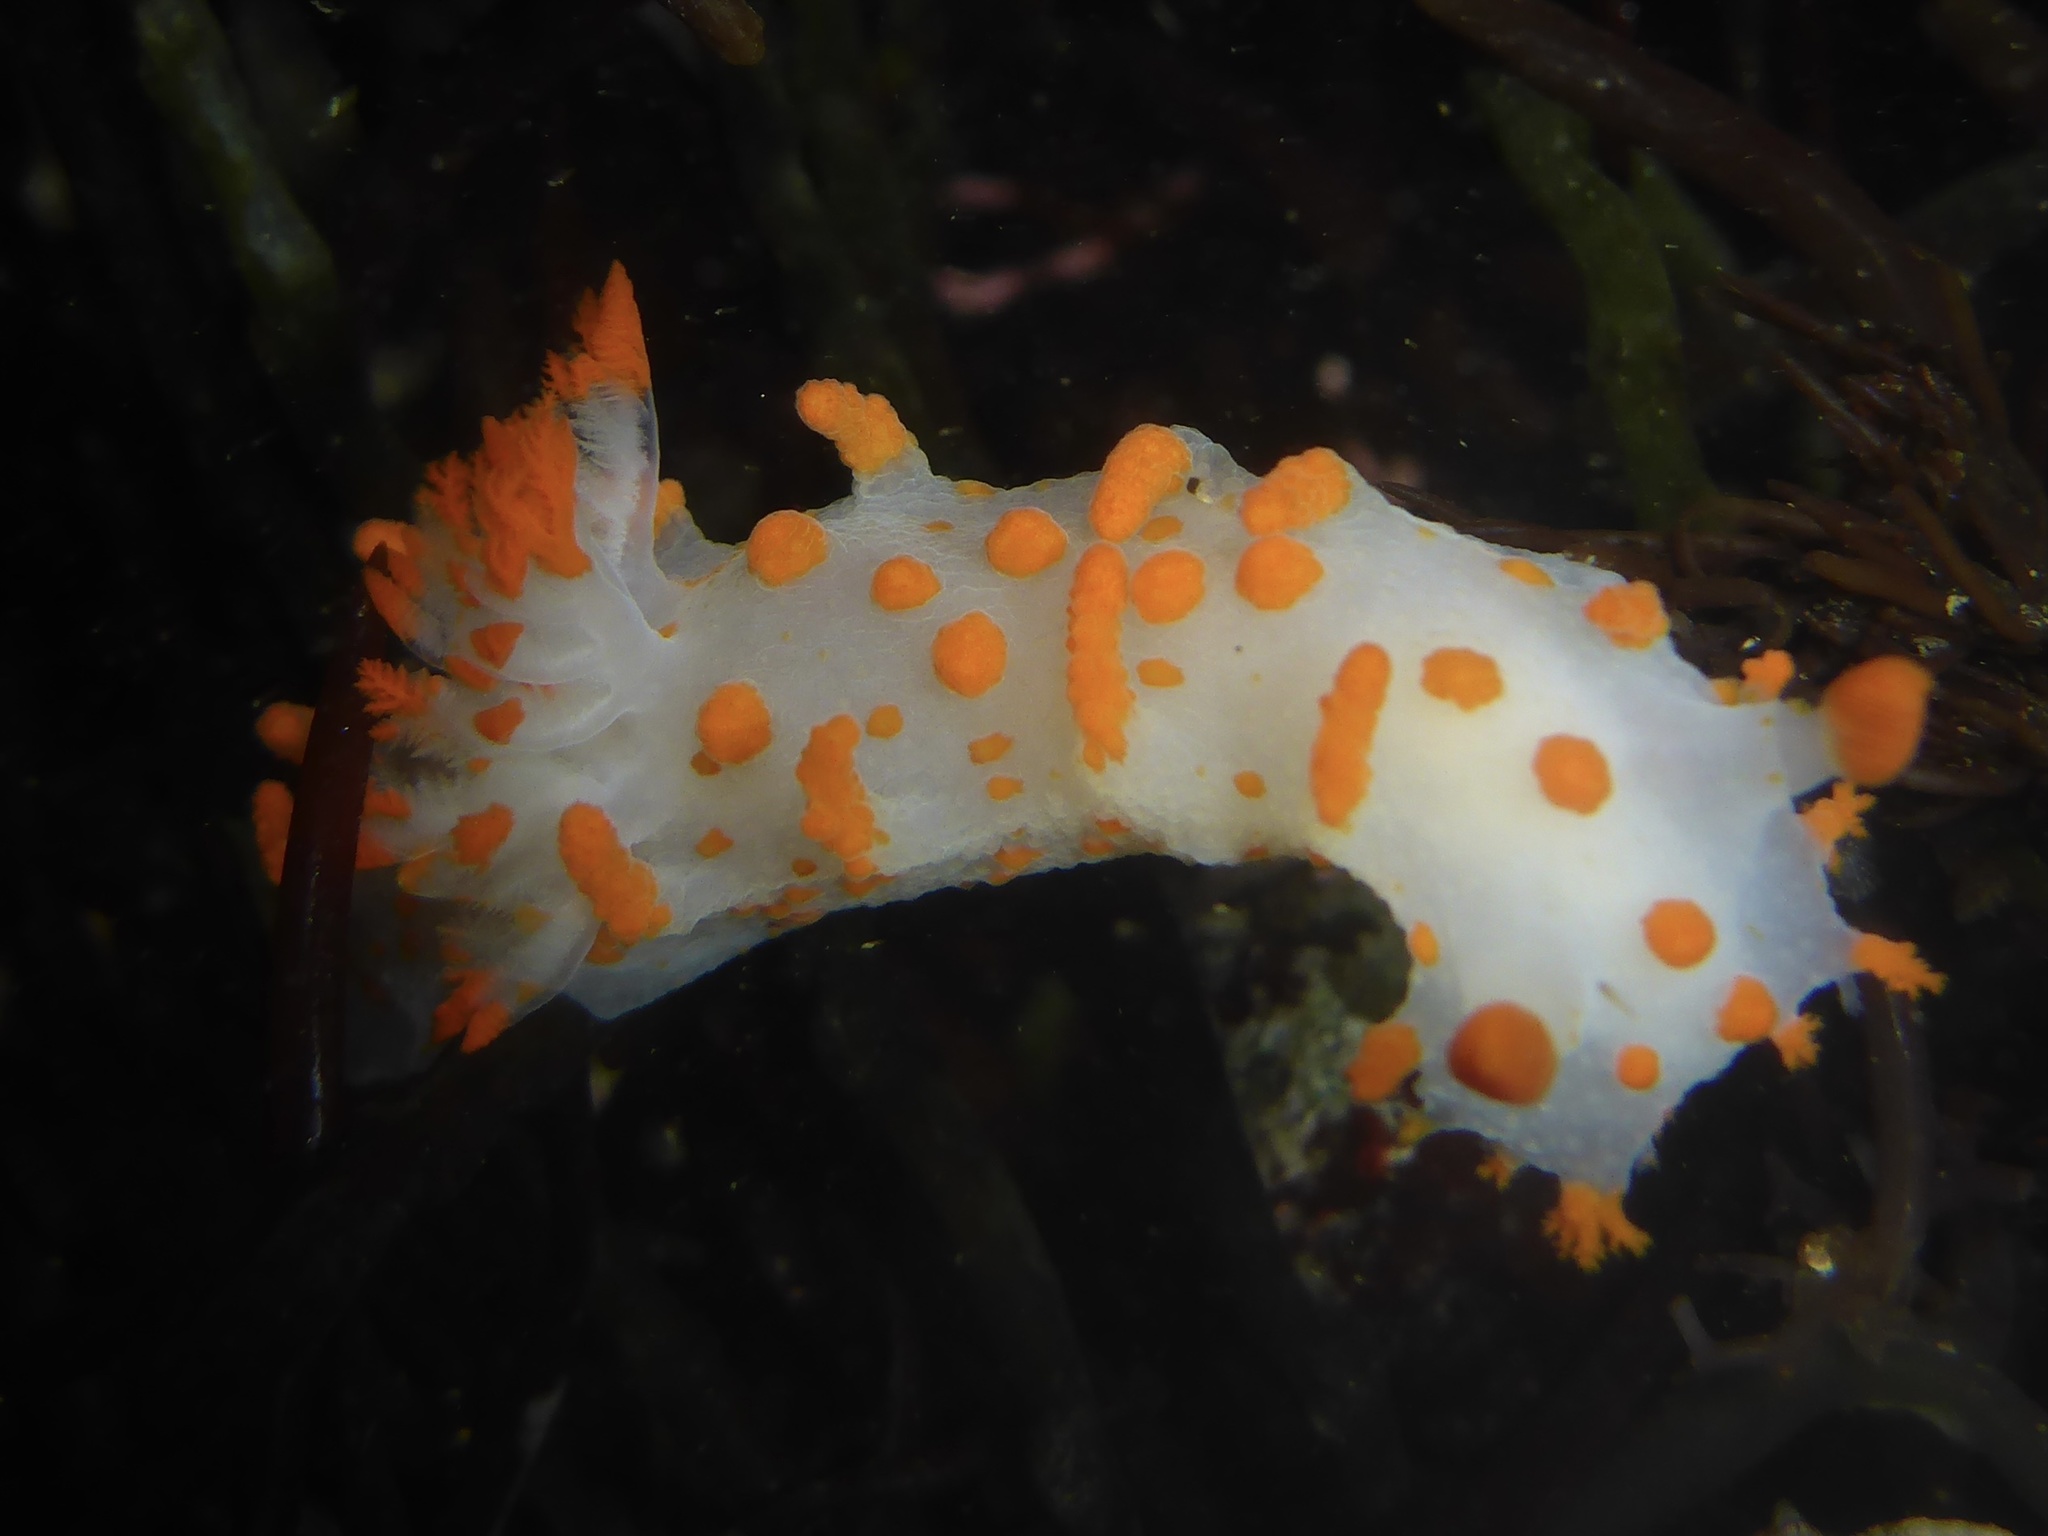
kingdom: Animalia
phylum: Mollusca
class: Gastropoda
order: Nudibranchia
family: Polyceridae
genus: Triopha
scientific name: Triopha catalinae
